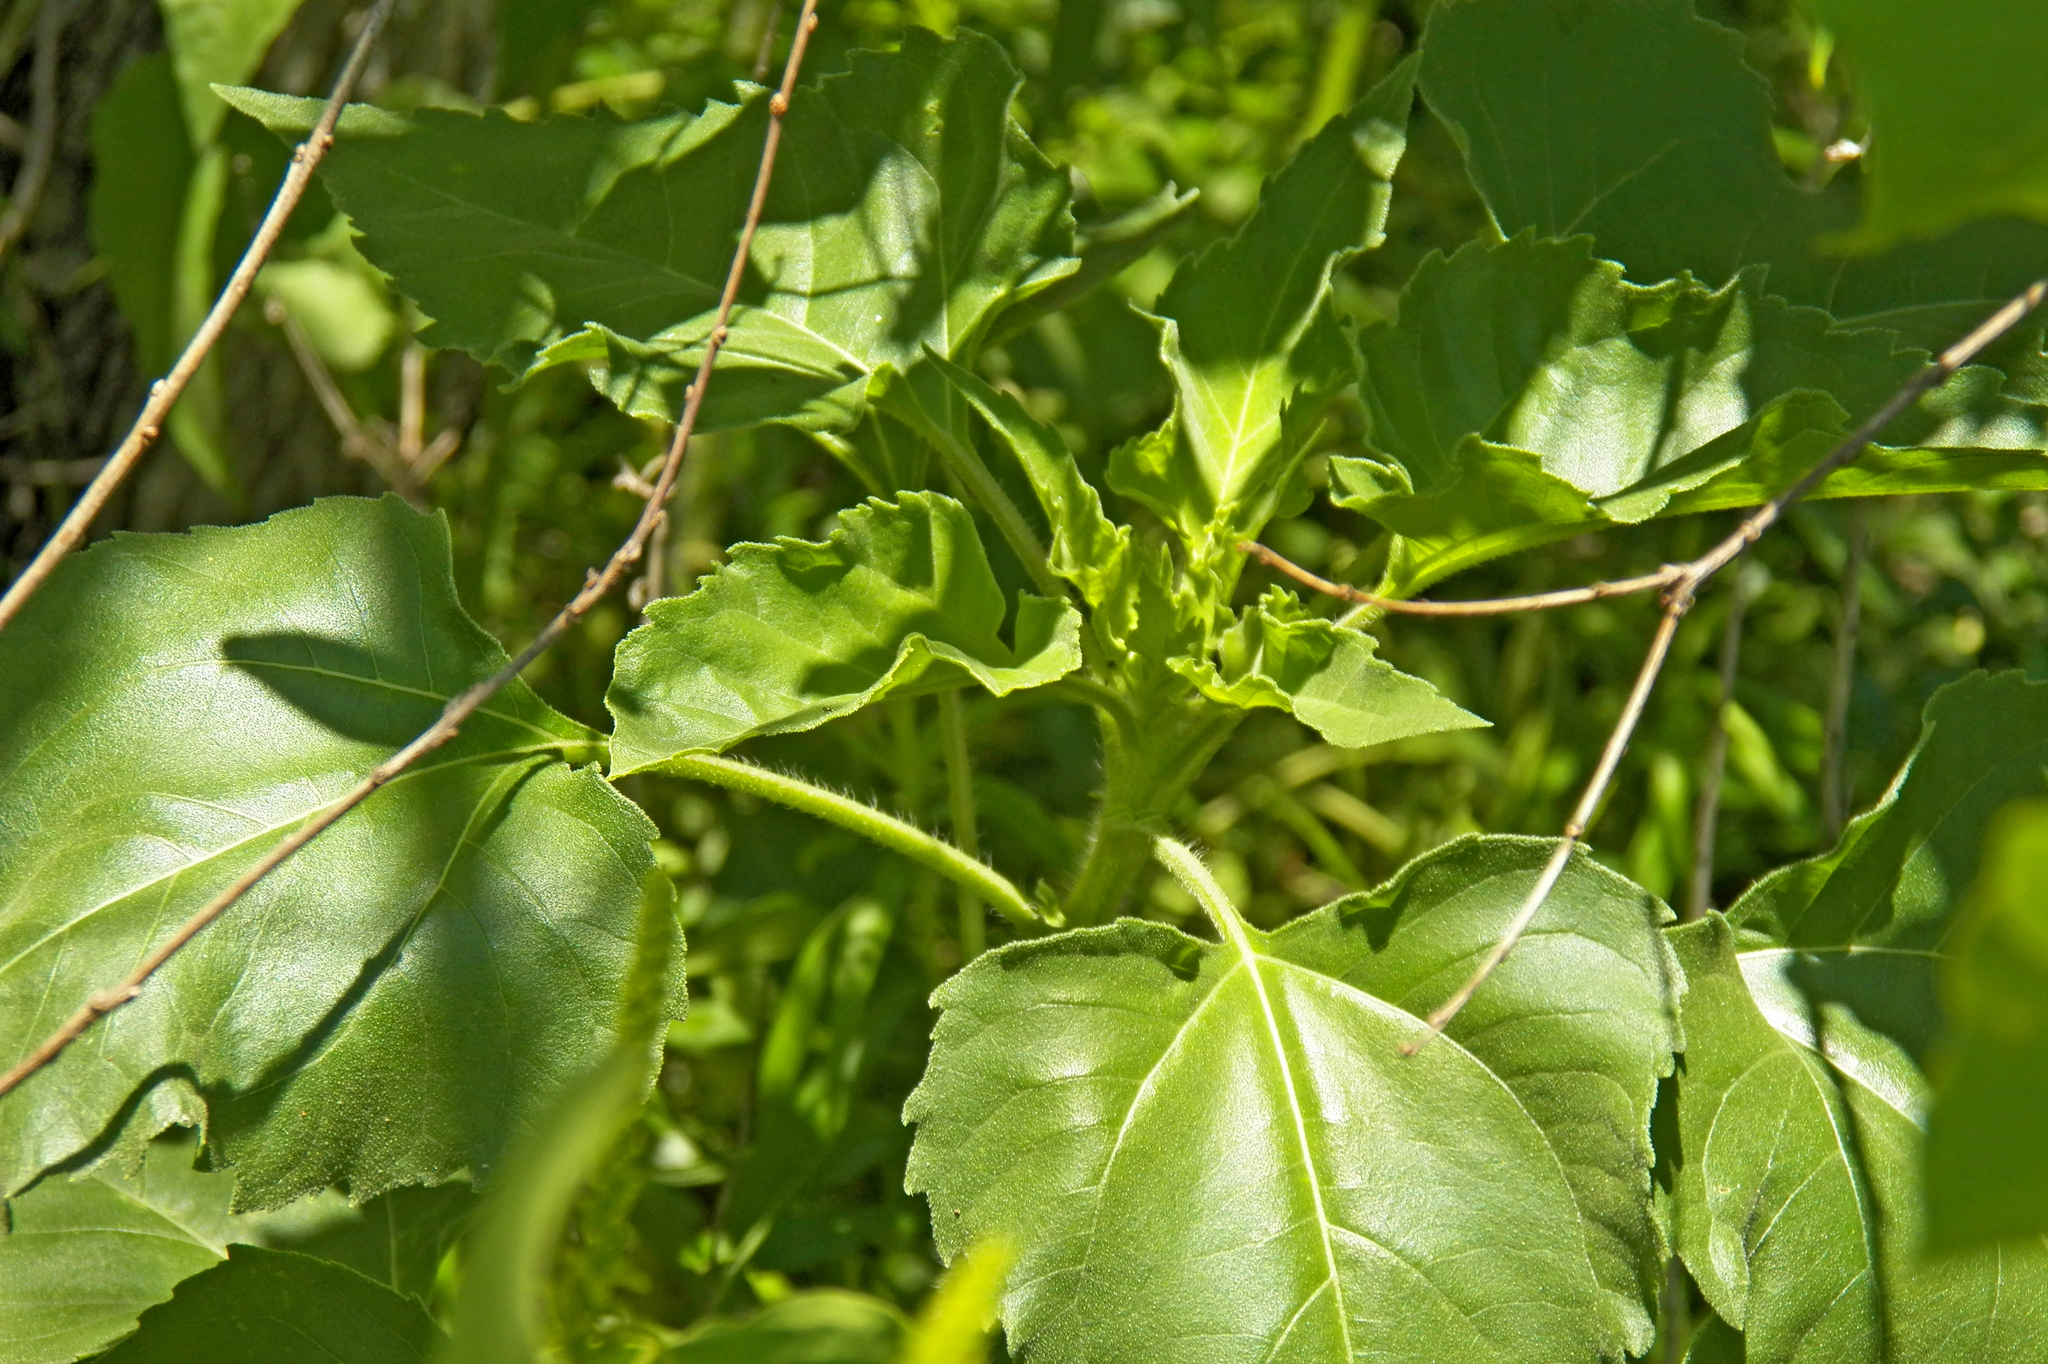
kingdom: Plantae
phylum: Tracheophyta
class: Magnoliopsida
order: Asterales
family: Asteraceae
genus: Helianthus
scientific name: Helianthus annuus
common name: Sunflower
